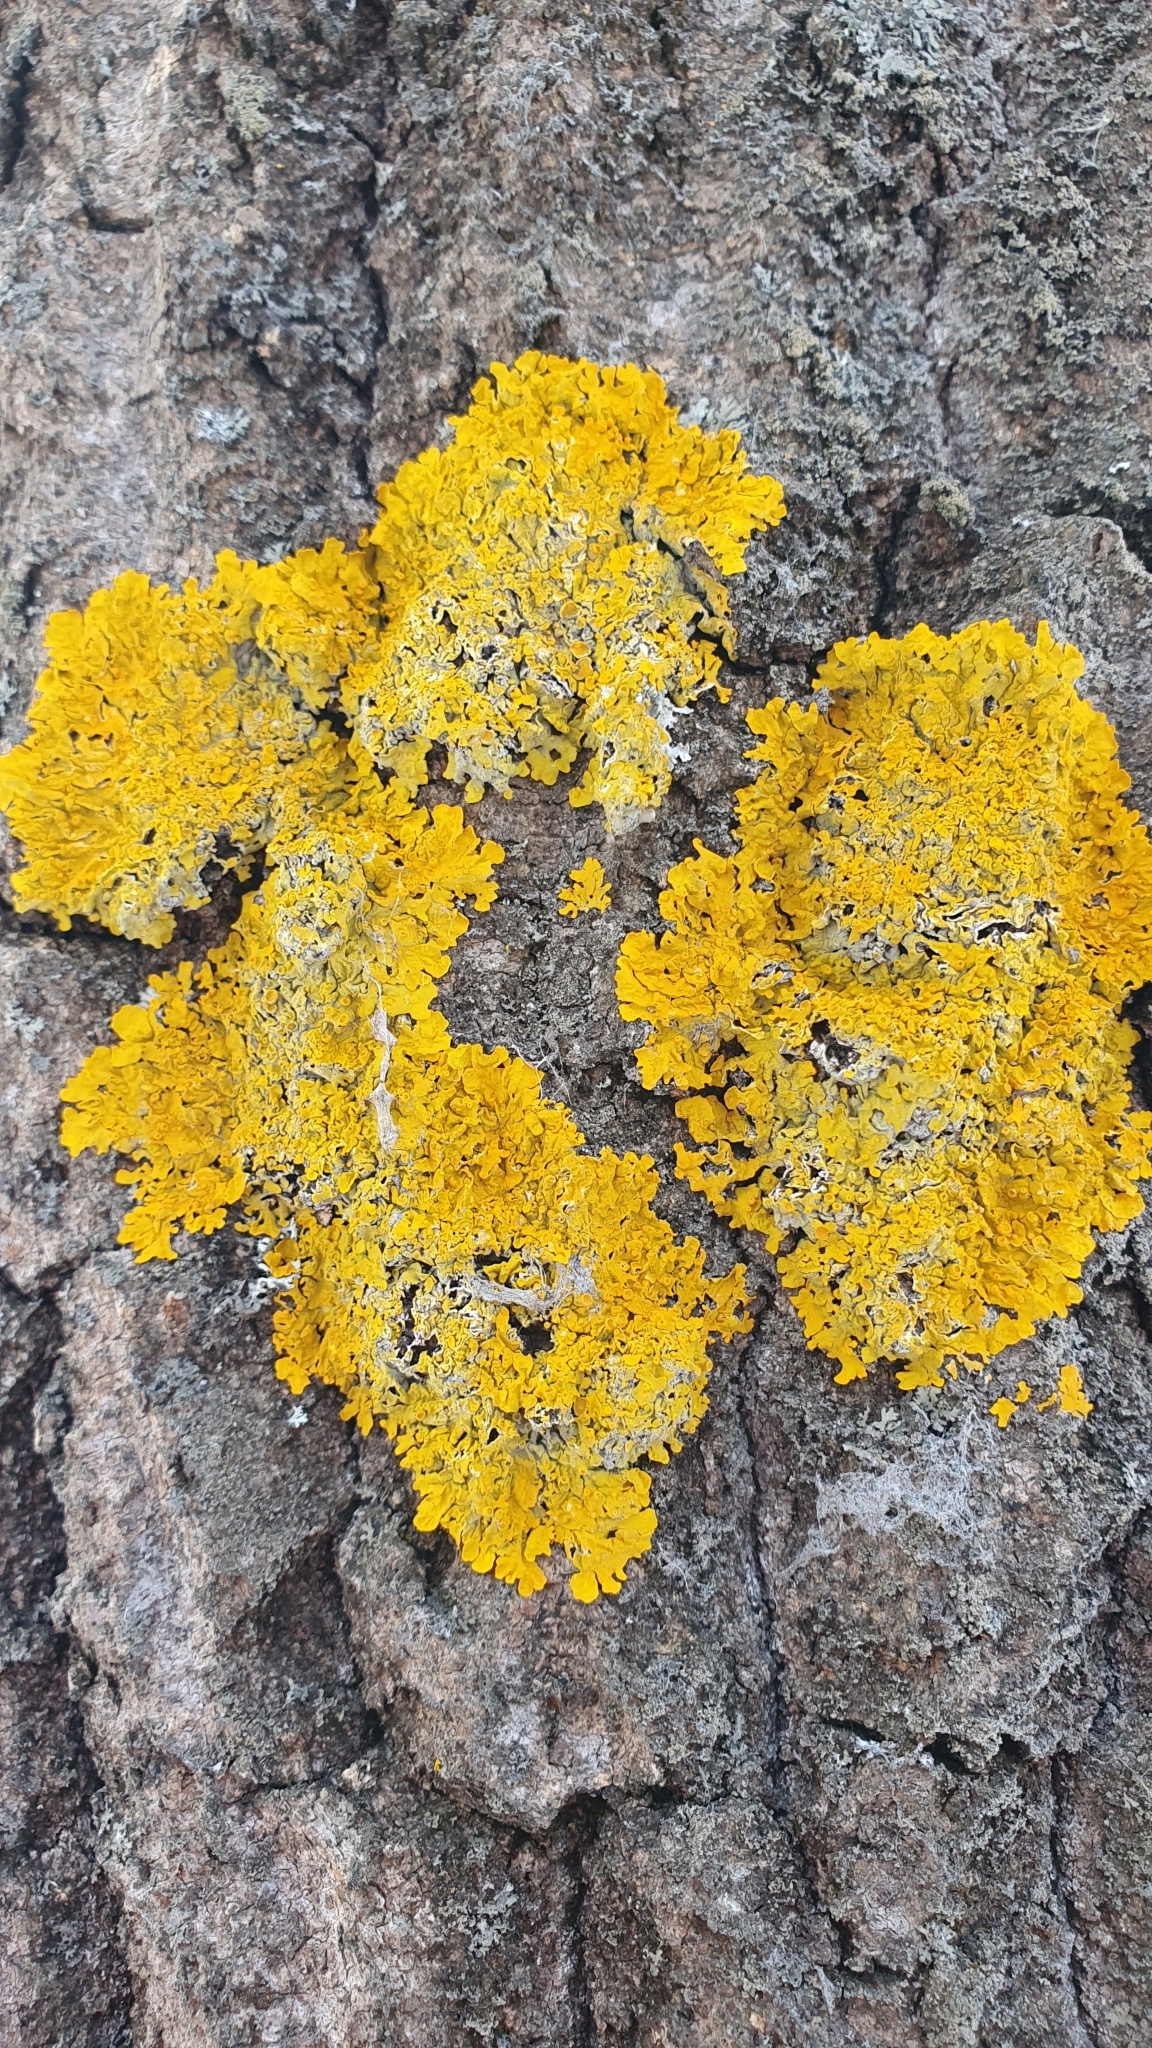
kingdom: Fungi
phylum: Ascomycota
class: Lecanoromycetes
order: Teloschistales
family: Teloschistaceae
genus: Xanthoria
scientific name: Xanthoria parietina
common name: Common orange lichen
